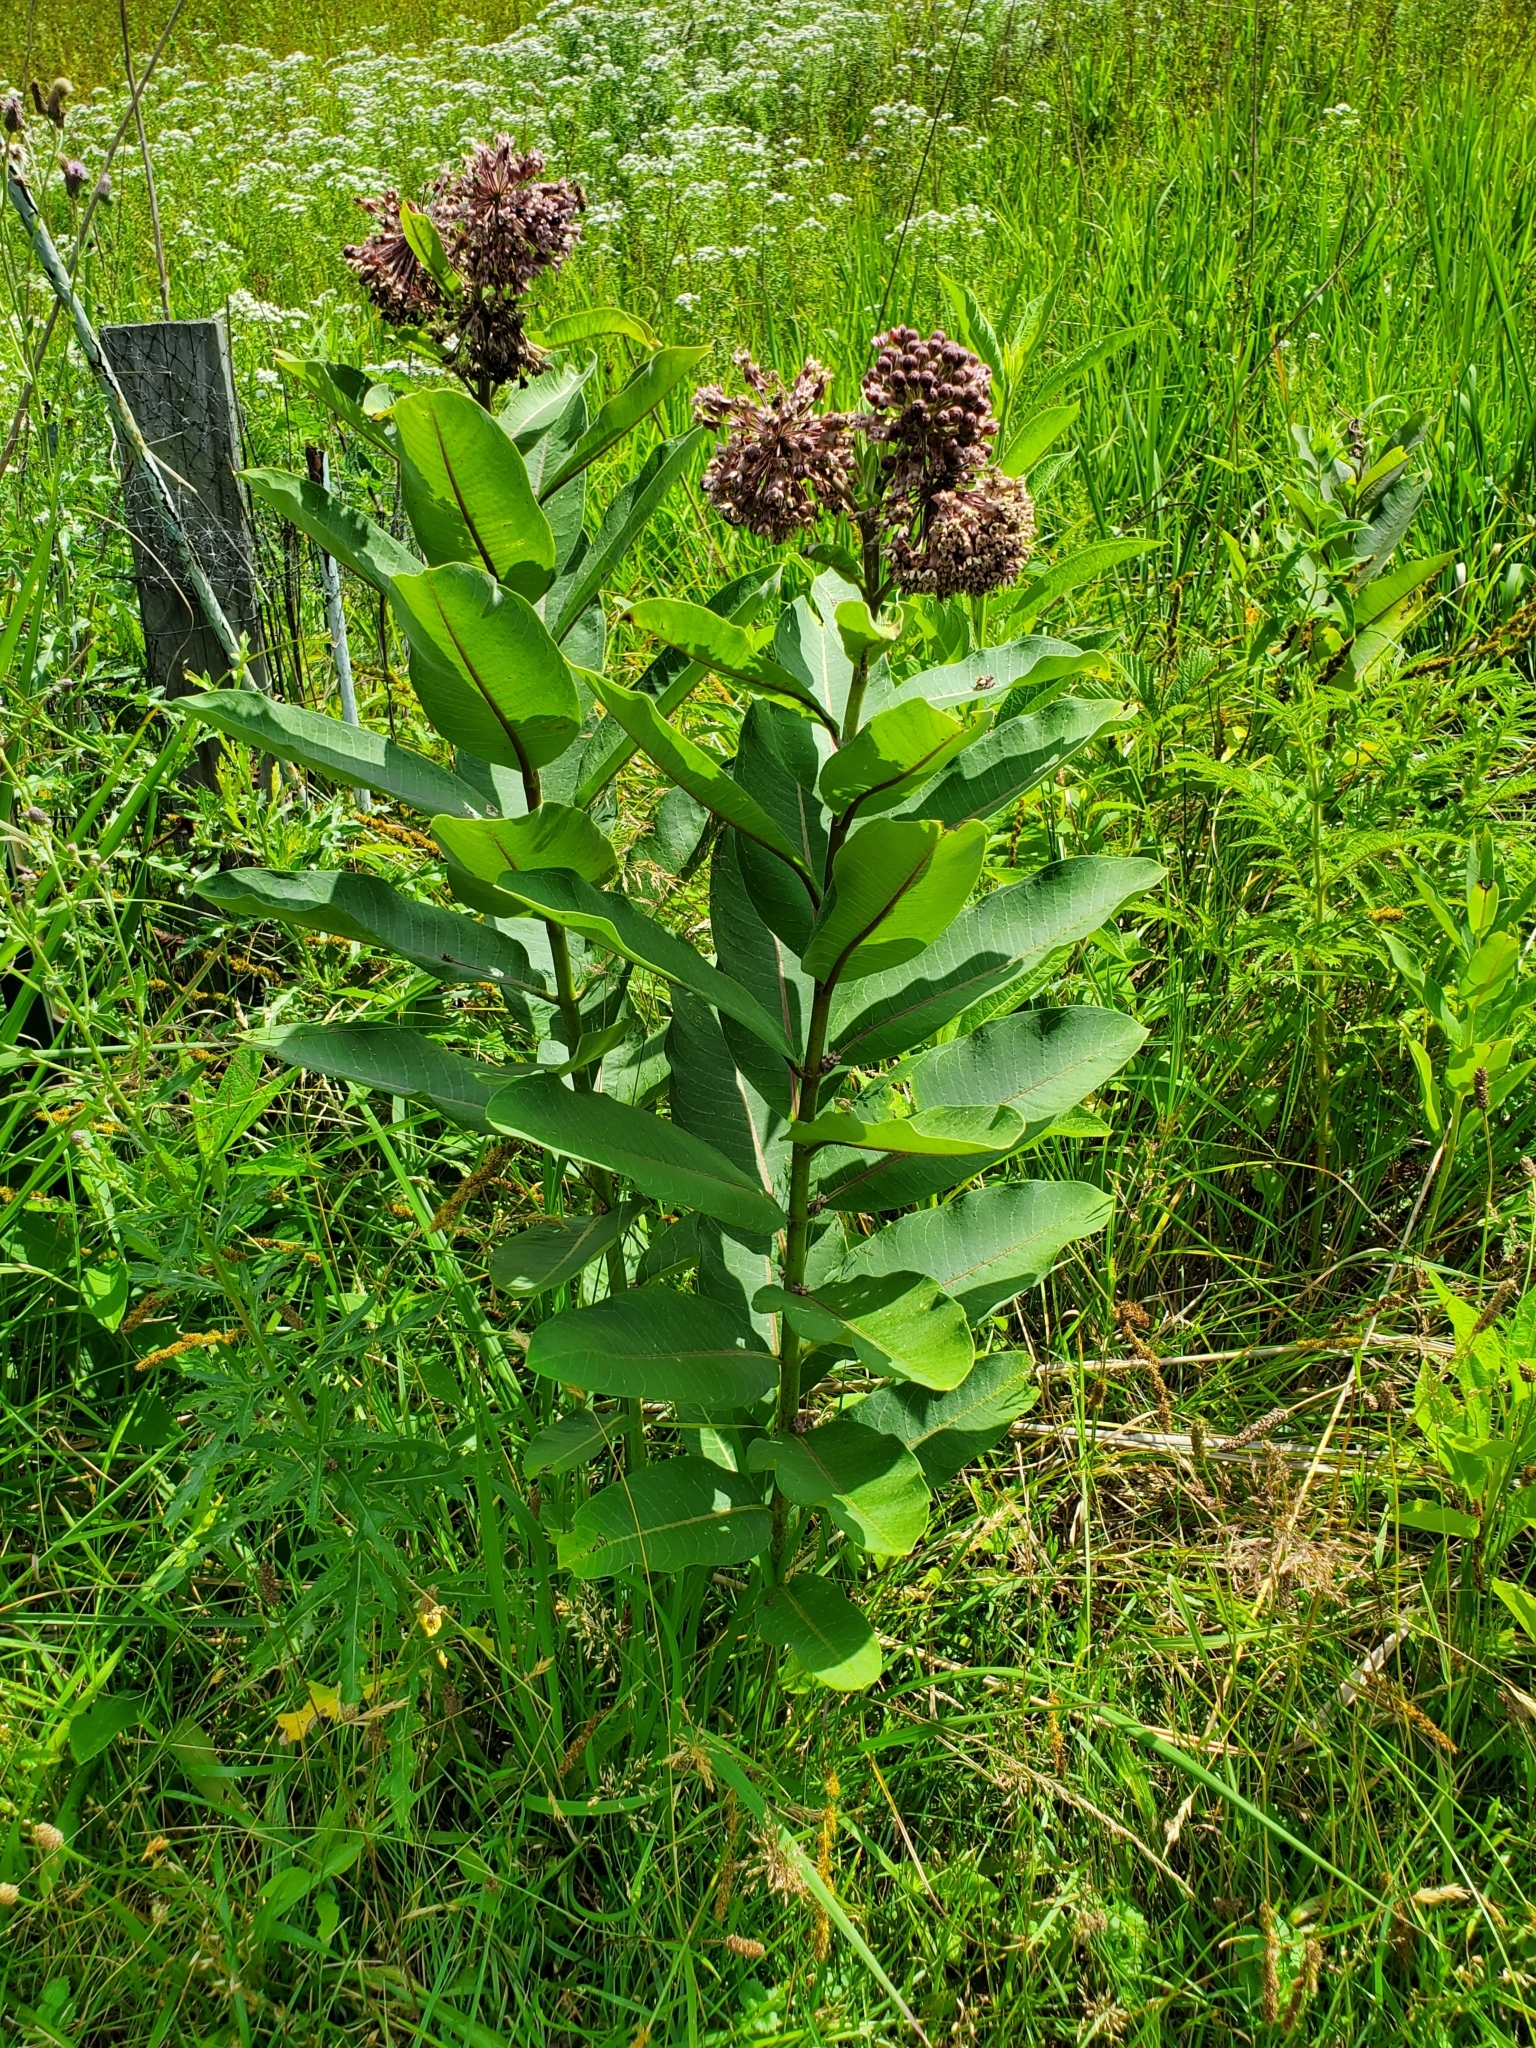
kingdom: Plantae
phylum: Tracheophyta
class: Magnoliopsida
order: Gentianales
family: Apocynaceae
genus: Asclepias
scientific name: Asclepias syriaca
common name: Common milkweed
